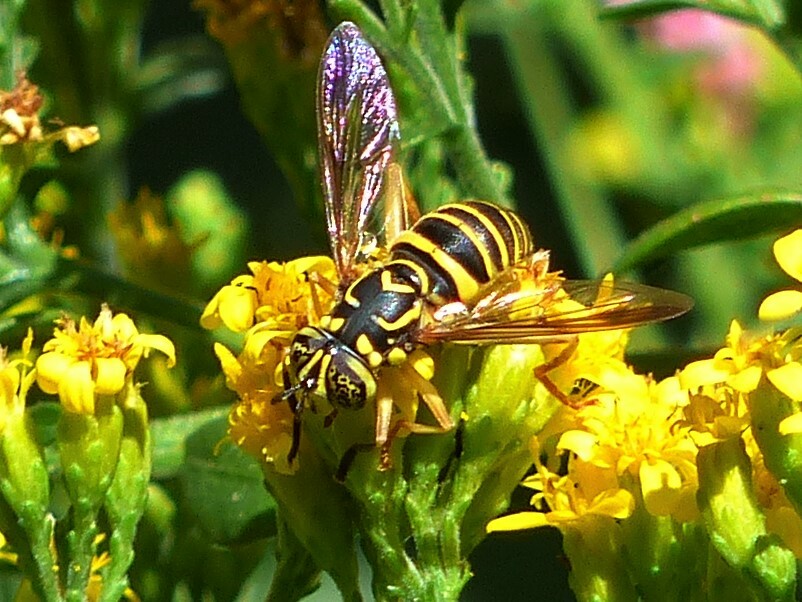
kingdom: Animalia
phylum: Arthropoda
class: Insecta
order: Diptera
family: Syrphidae
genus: Spilomyia
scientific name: Spilomyia longicornis
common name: Eastern hornet fly
